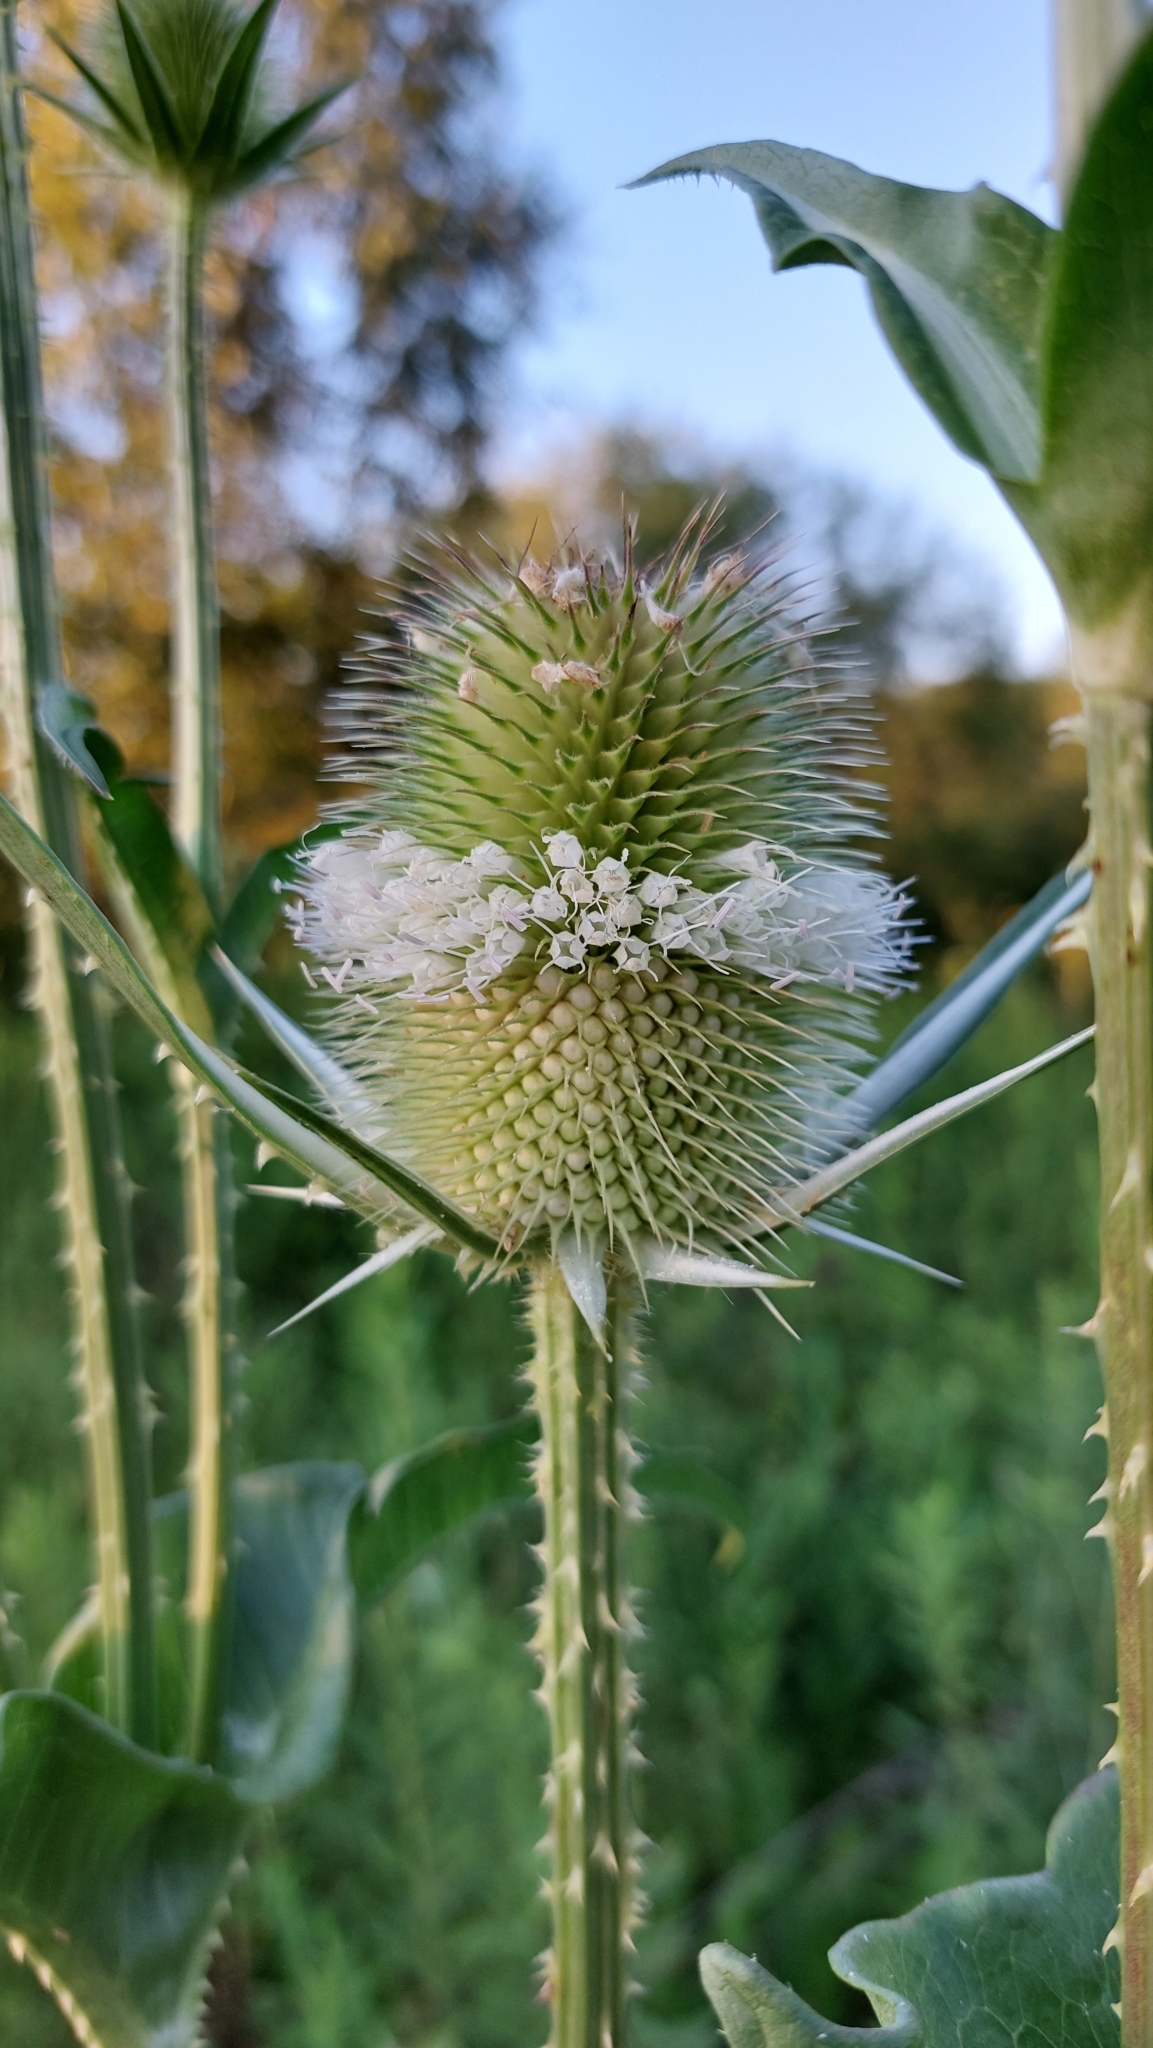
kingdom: Plantae
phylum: Tracheophyta
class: Magnoliopsida
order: Dipsacales
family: Caprifoliaceae
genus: Dipsacus
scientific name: Dipsacus laciniatus
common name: Cut-leaved teasel
